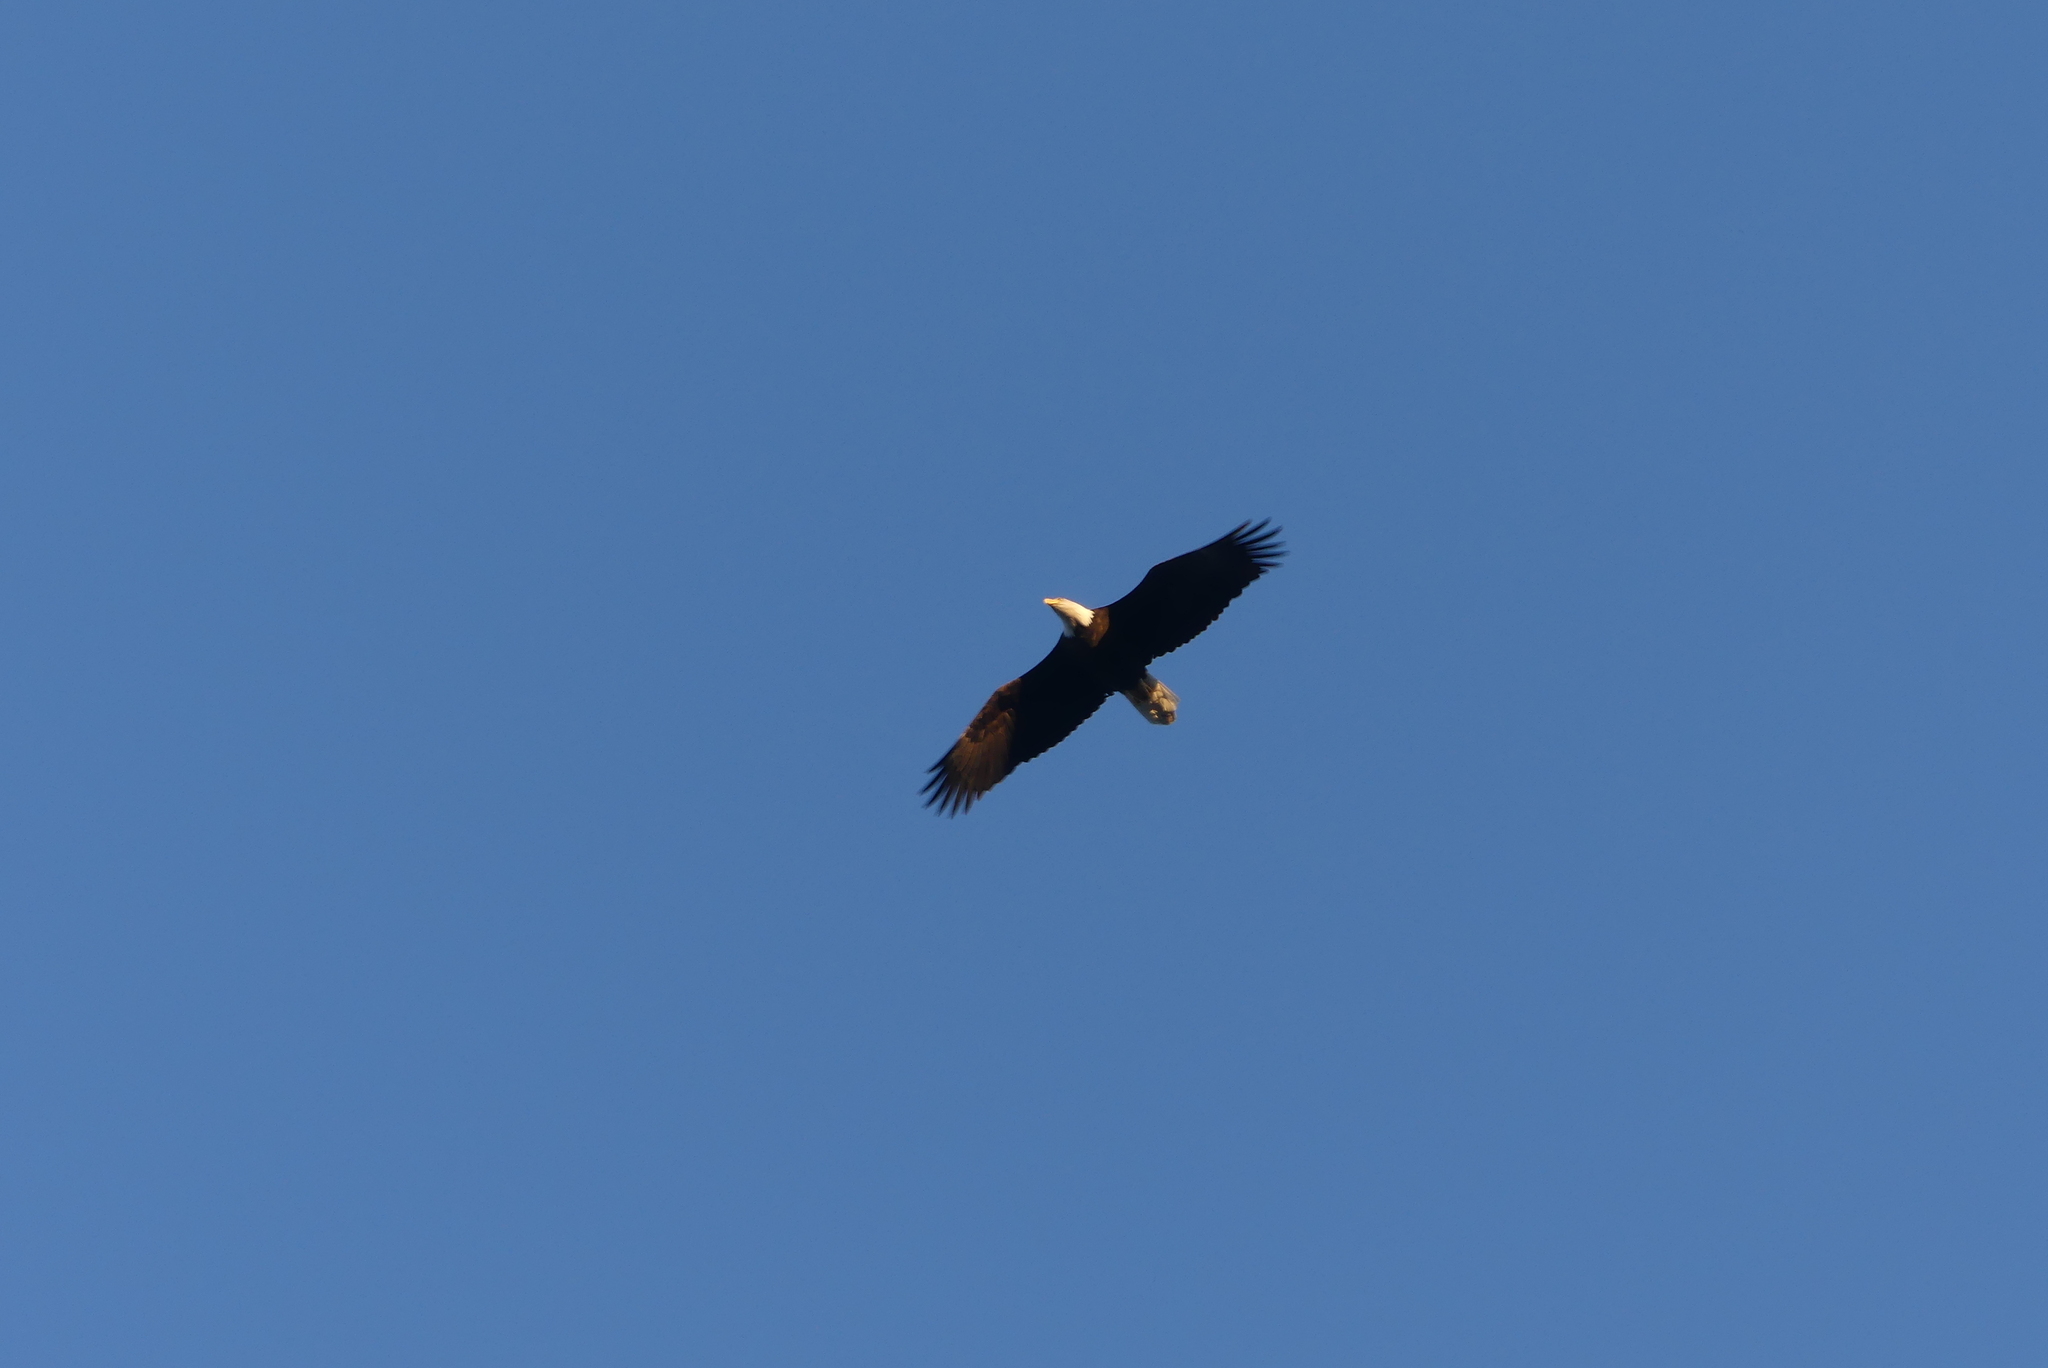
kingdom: Animalia
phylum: Chordata
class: Aves
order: Accipitriformes
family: Accipitridae
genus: Haliaeetus
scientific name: Haliaeetus leucocephalus
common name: Bald eagle
